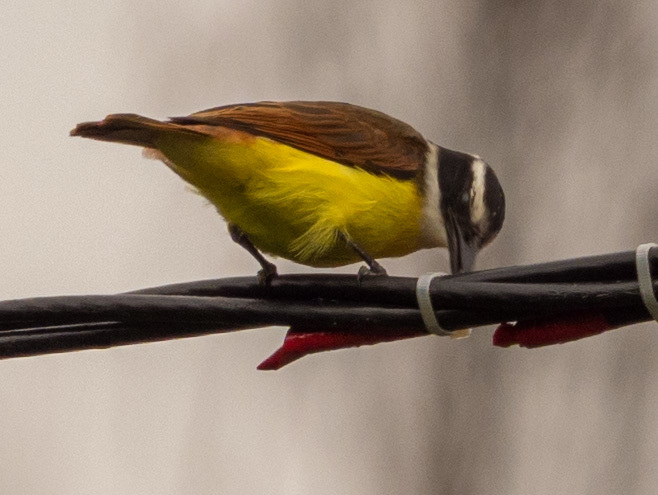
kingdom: Animalia
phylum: Chordata
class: Aves
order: Passeriformes
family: Tyrannidae
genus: Pitangus
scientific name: Pitangus sulphuratus
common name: Great kiskadee
